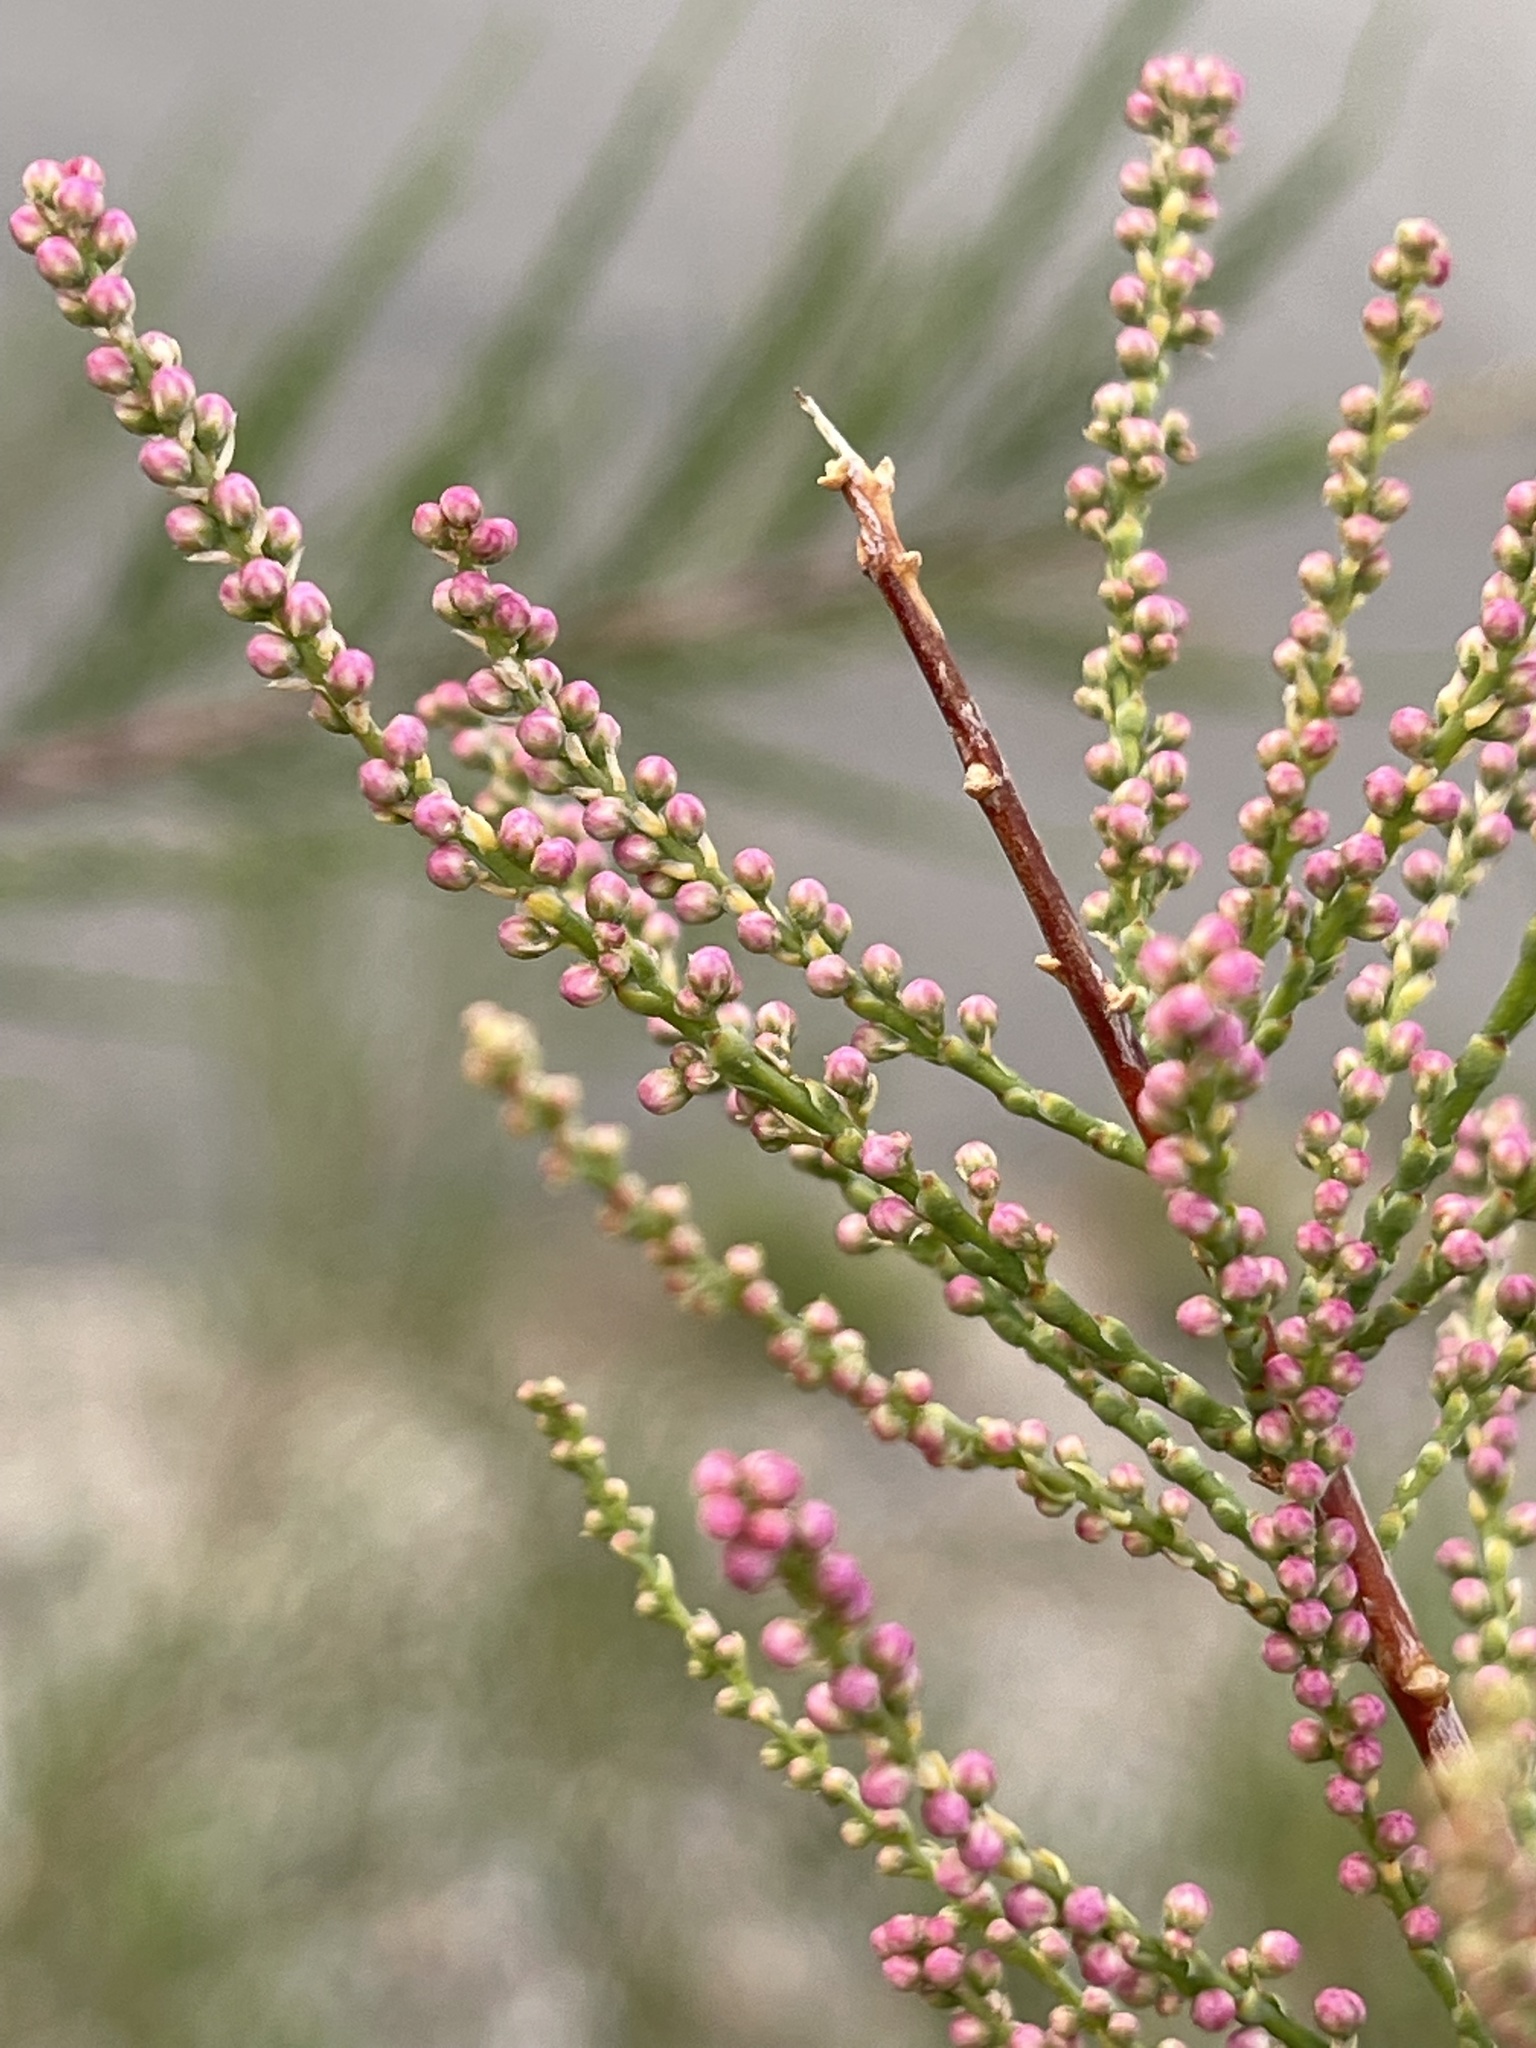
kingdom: Plantae
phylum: Tracheophyta
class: Magnoliopsida
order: Caryophyllales
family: Tamaricaceae
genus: Tamarix
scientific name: Tamarix ramosissima
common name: Pink tamarisk
